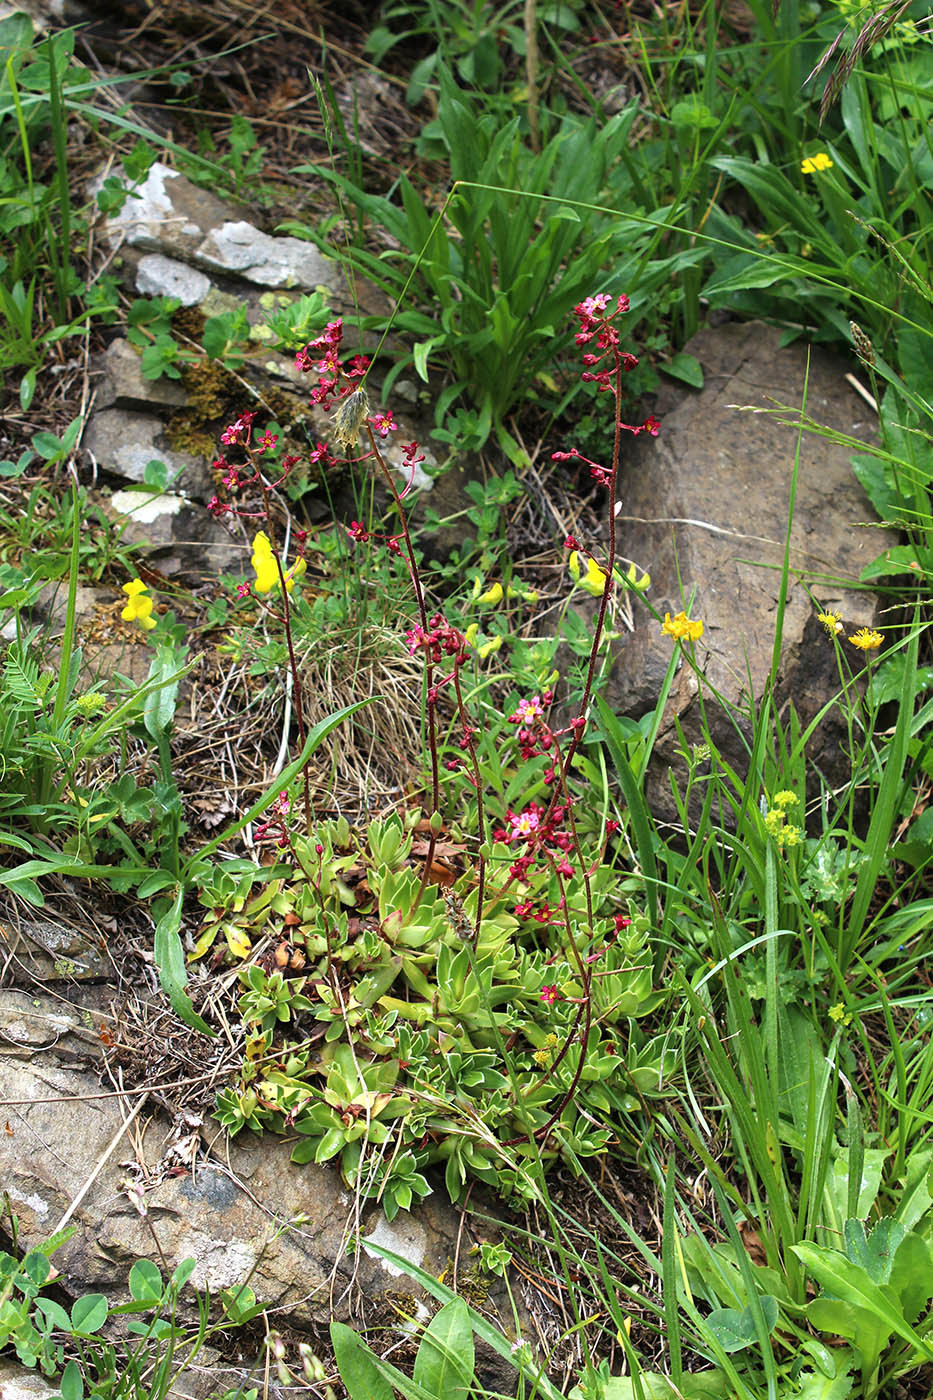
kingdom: Plantae
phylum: Tracheophyta
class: Magnoliopsida
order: Saxifragales
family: Saxifragaceae
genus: Saxifraga
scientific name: Saxifraga kolenatiana
